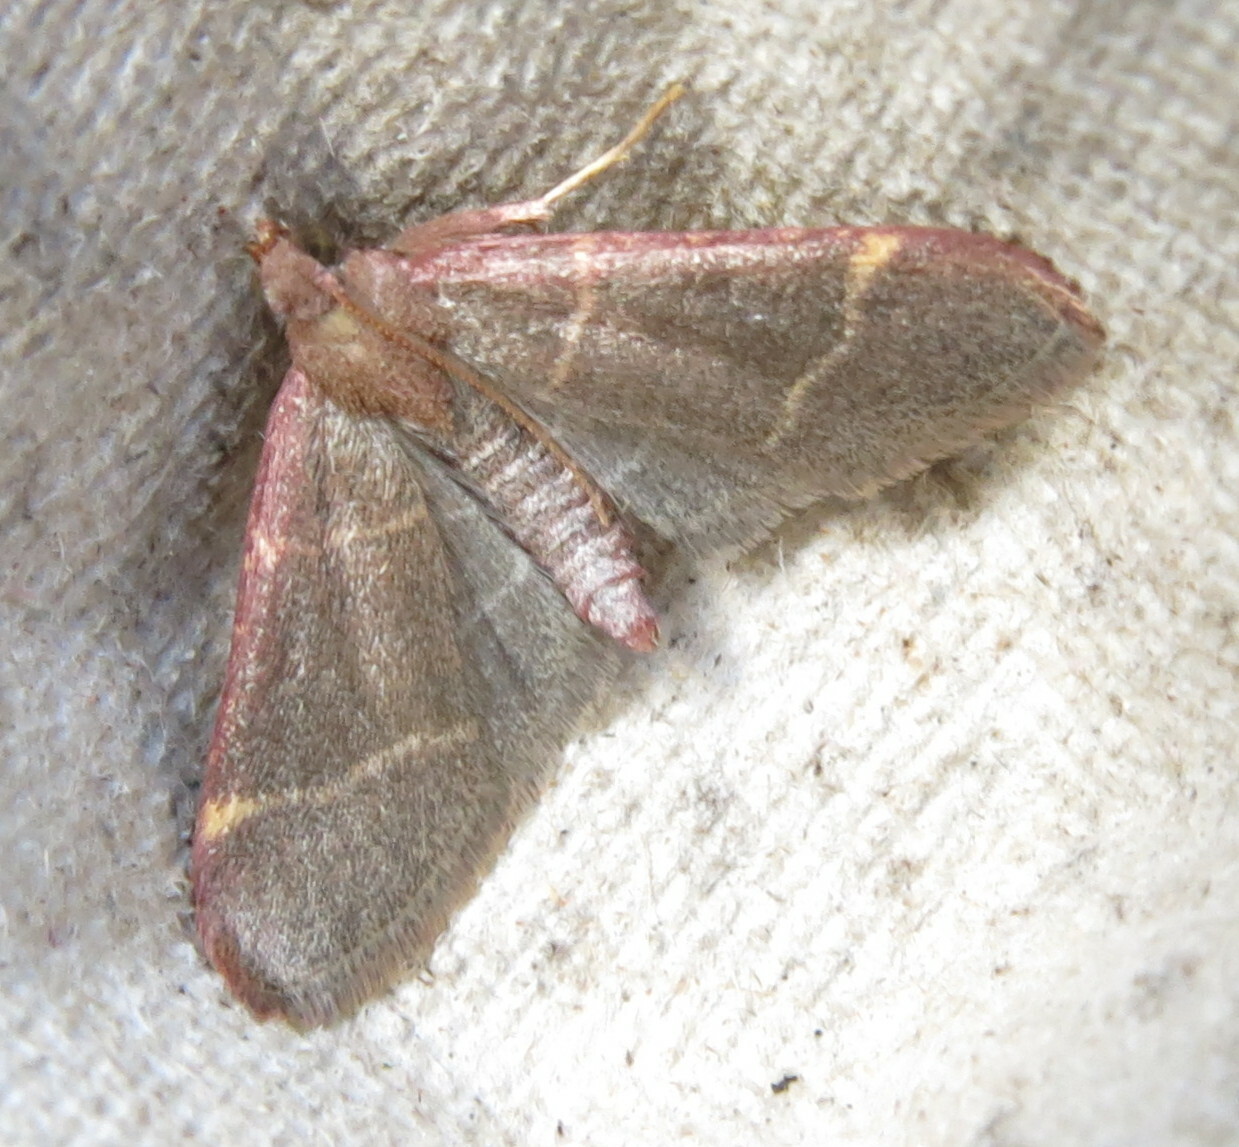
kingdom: Animalia
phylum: Arthropoda
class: Insecta
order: Lepidoptera
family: Pyralidae
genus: Hypsopygia
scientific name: Hypsopygia glaucinalis
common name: Double-striped tabby
